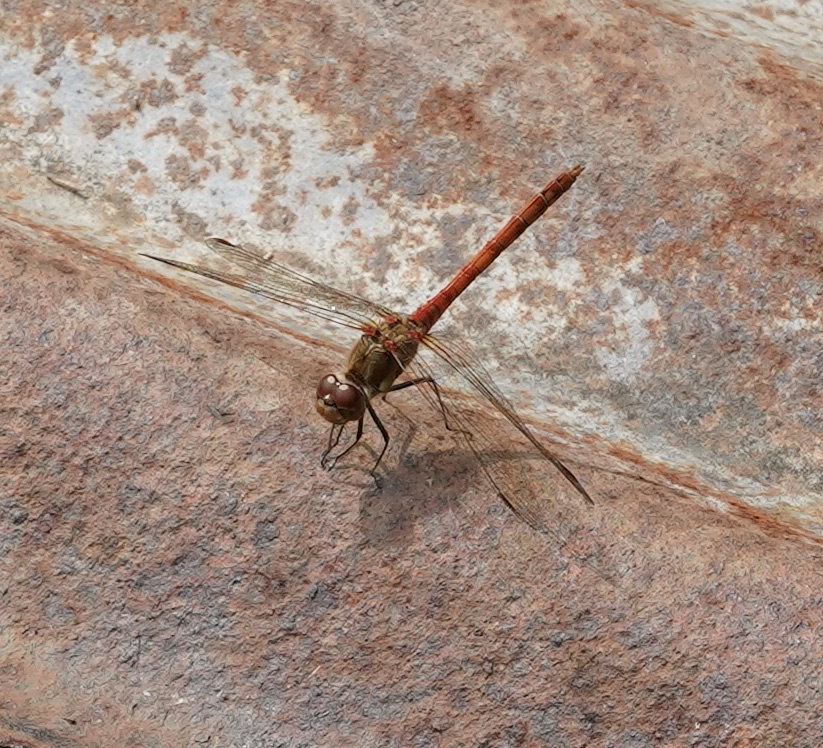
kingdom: Animalia
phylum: Arthropoda
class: Insecta
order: Odonata
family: Libellulidae
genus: Sympetrum
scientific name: Sympetrum striolatum
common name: Common darter
